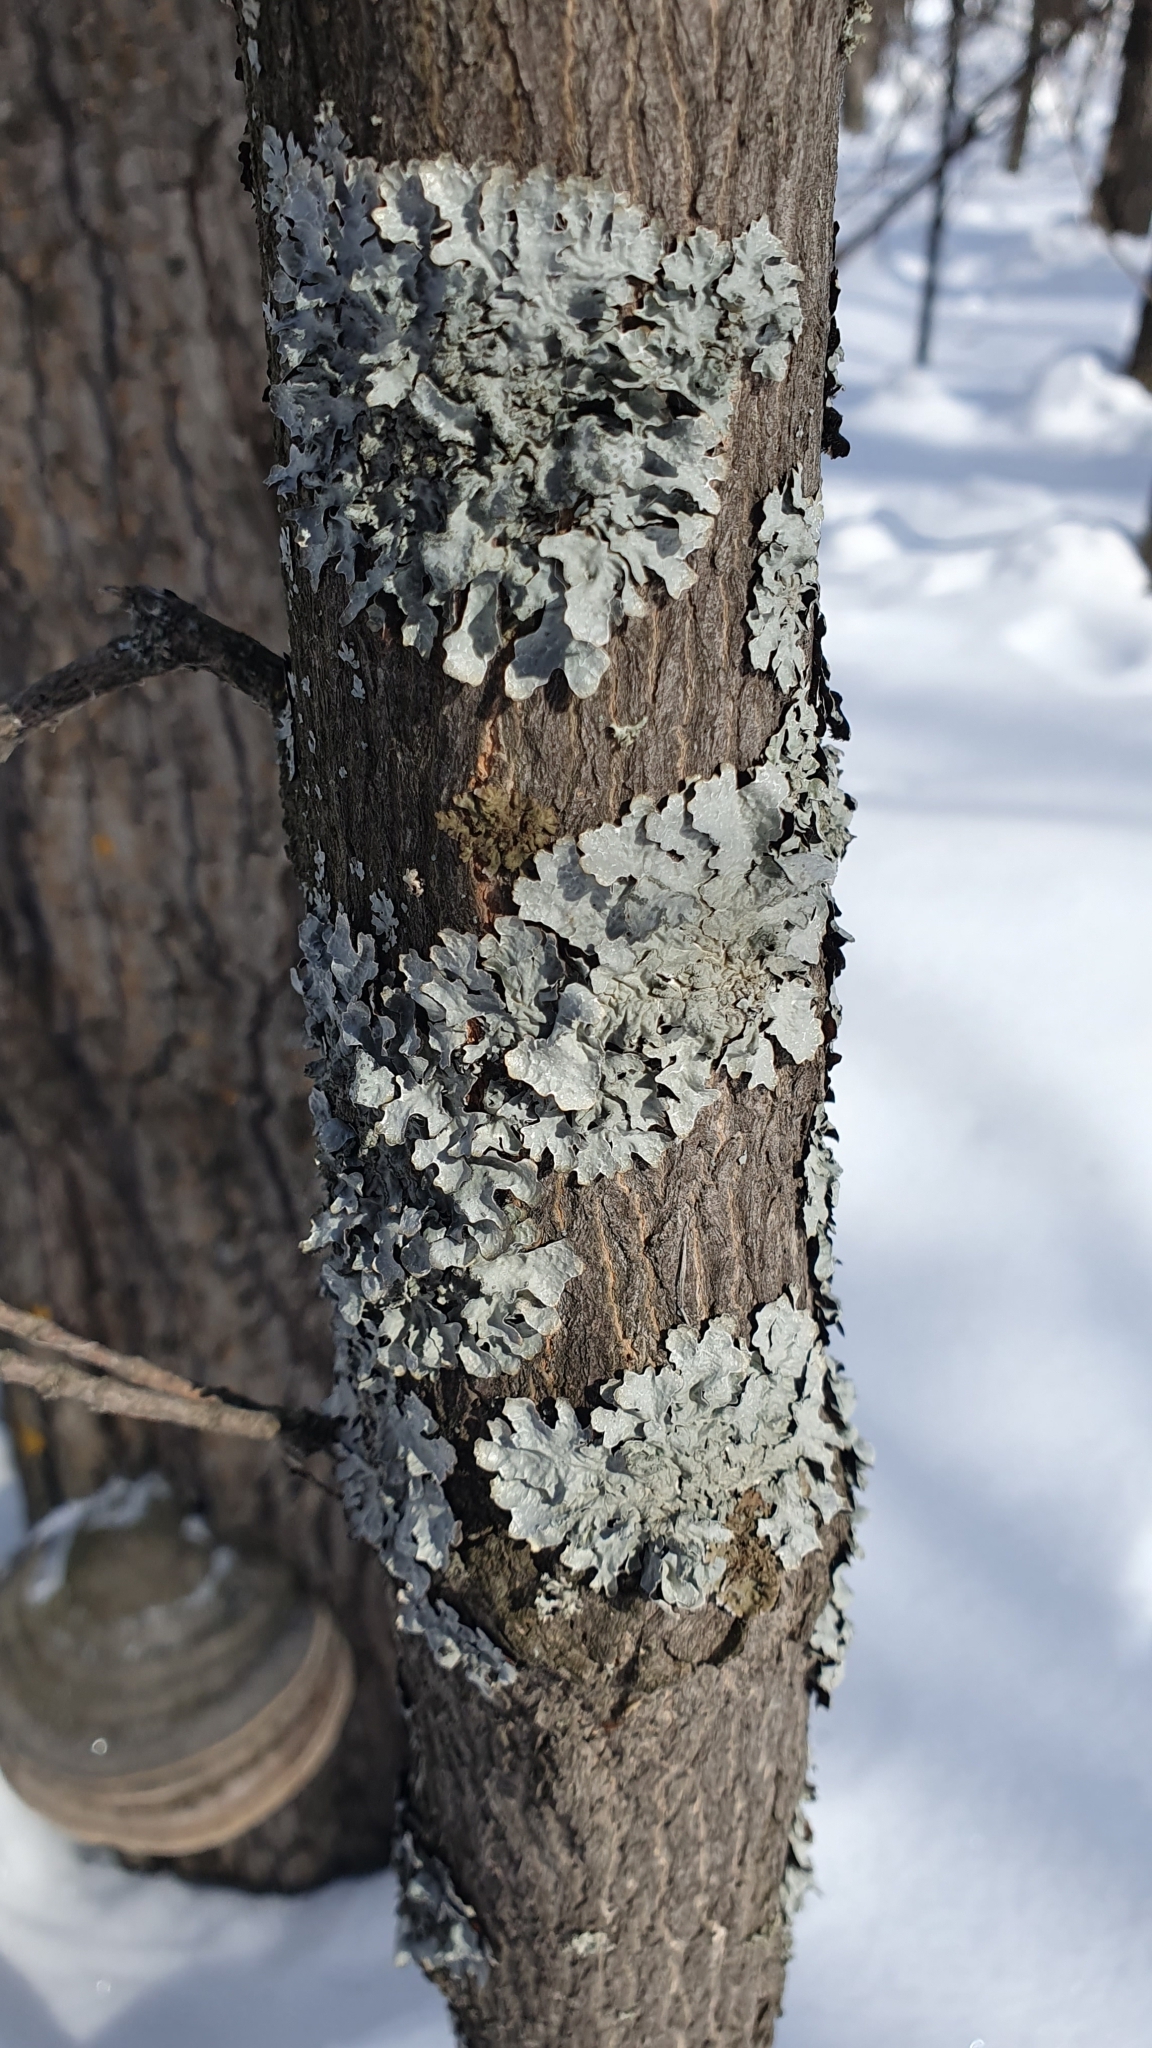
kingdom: Fungi
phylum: Ascomycota
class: Lecanoromycetes
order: Lecanorales
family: Parmeliaceae
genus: Parmelia
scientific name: Parmelia sulcata
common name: Netted shield lichen
